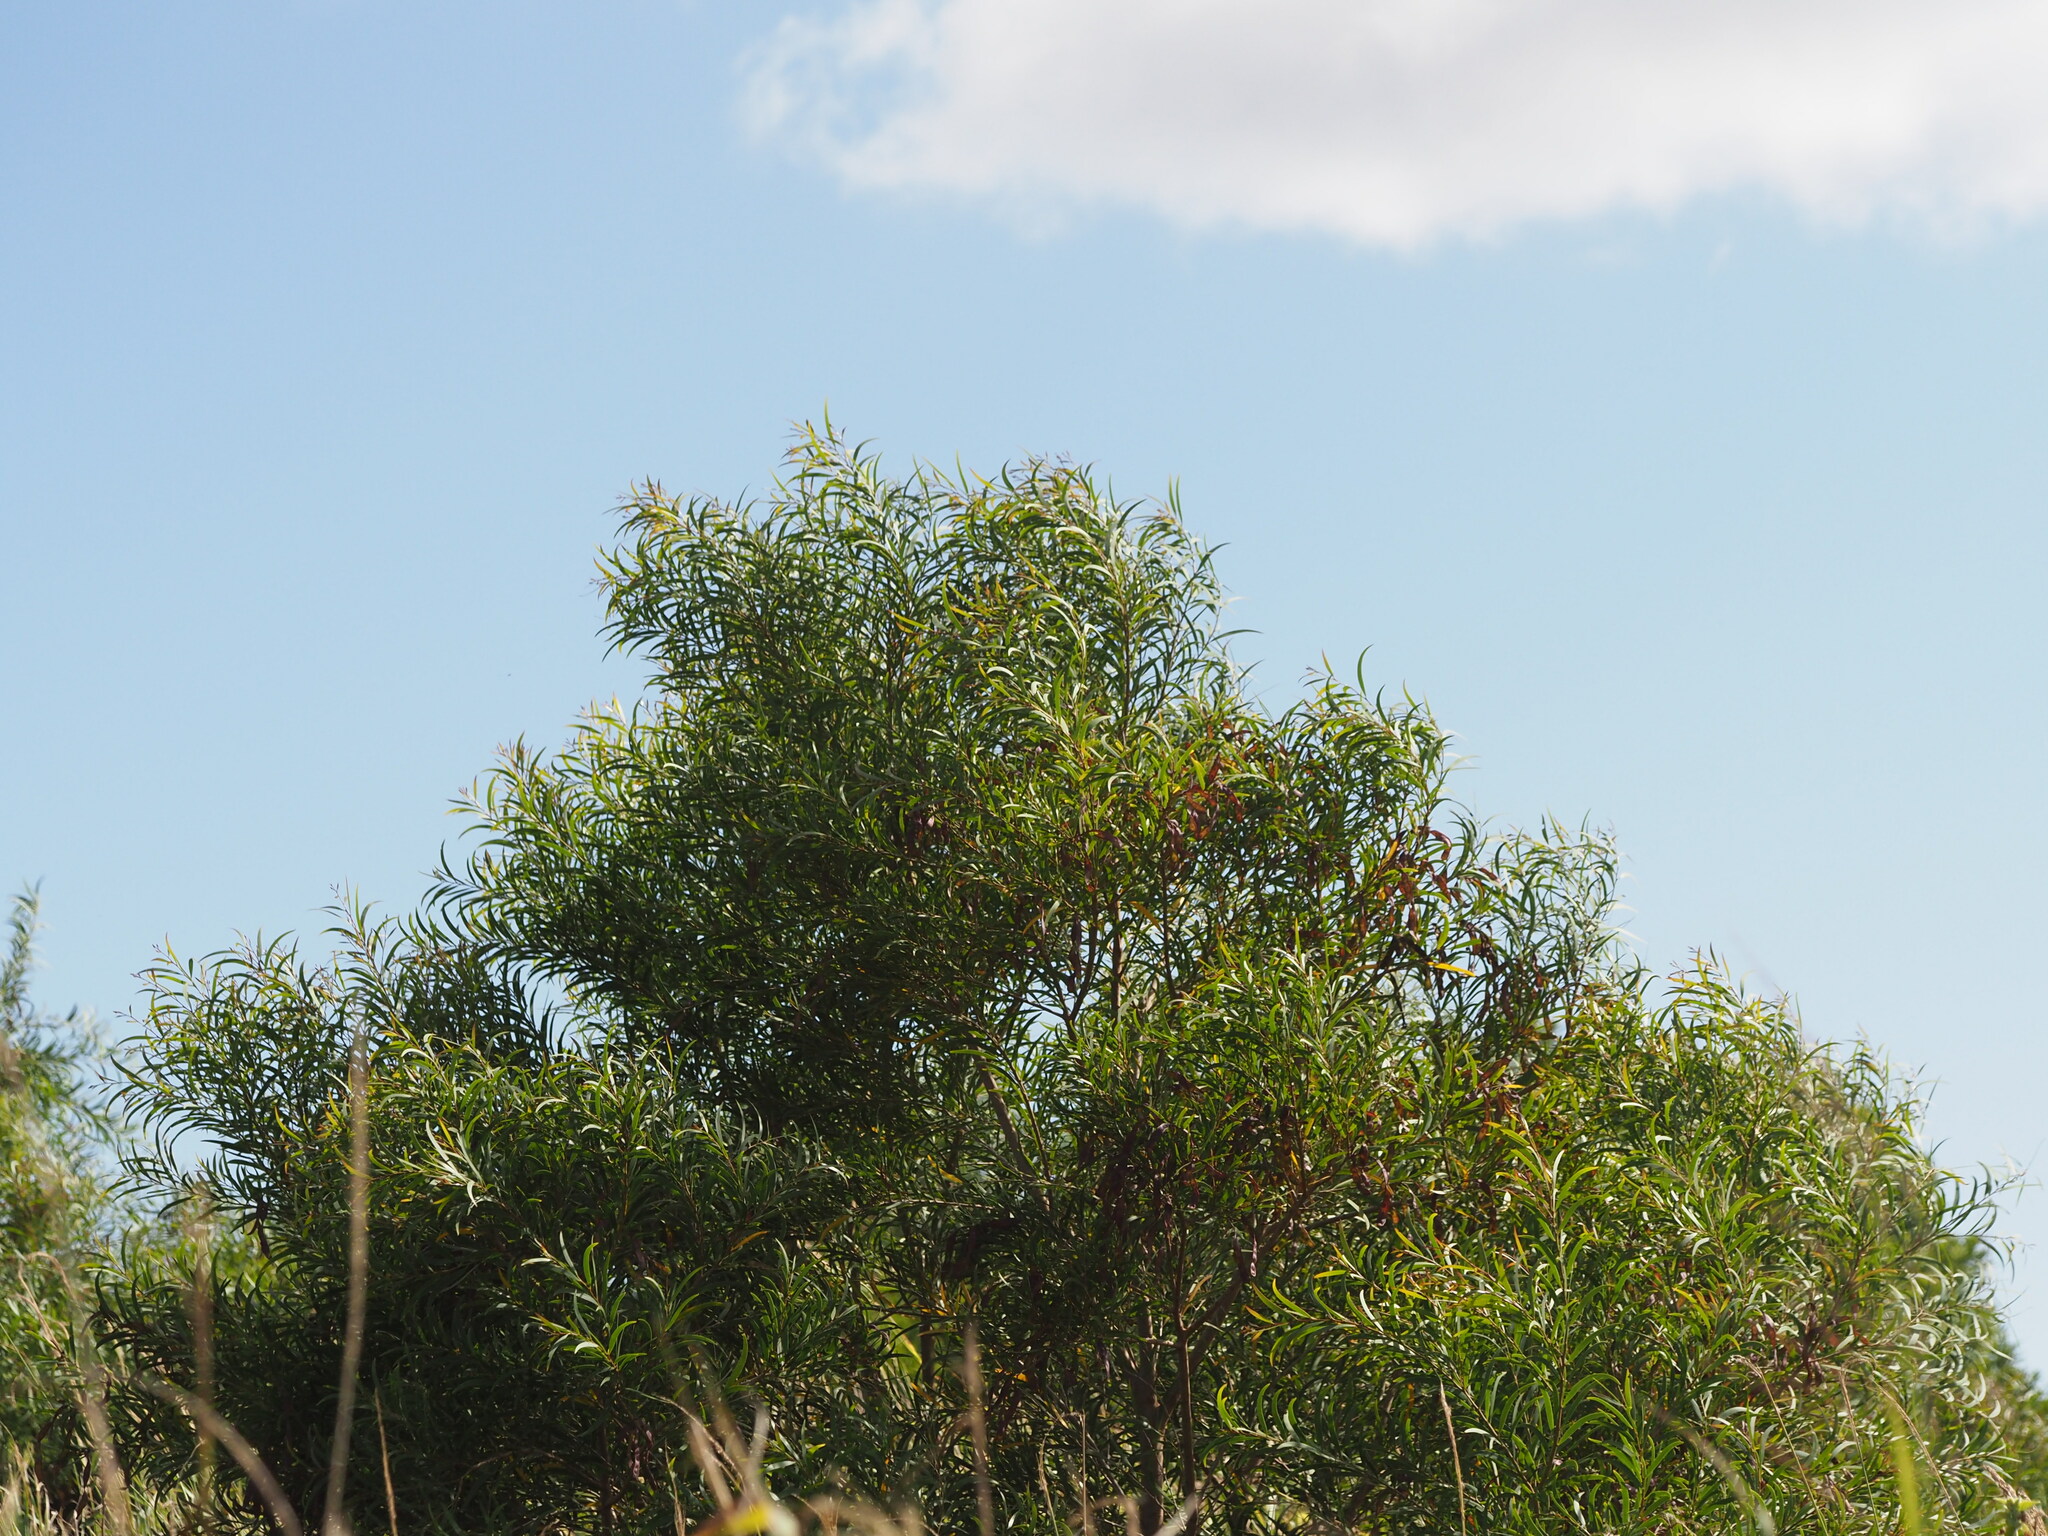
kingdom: Plantae
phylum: Tracheophyta
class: Magnoliopsida
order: Fabales
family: Fabaceae
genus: Acacia
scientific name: Acacia confusa
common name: Formosan koa
